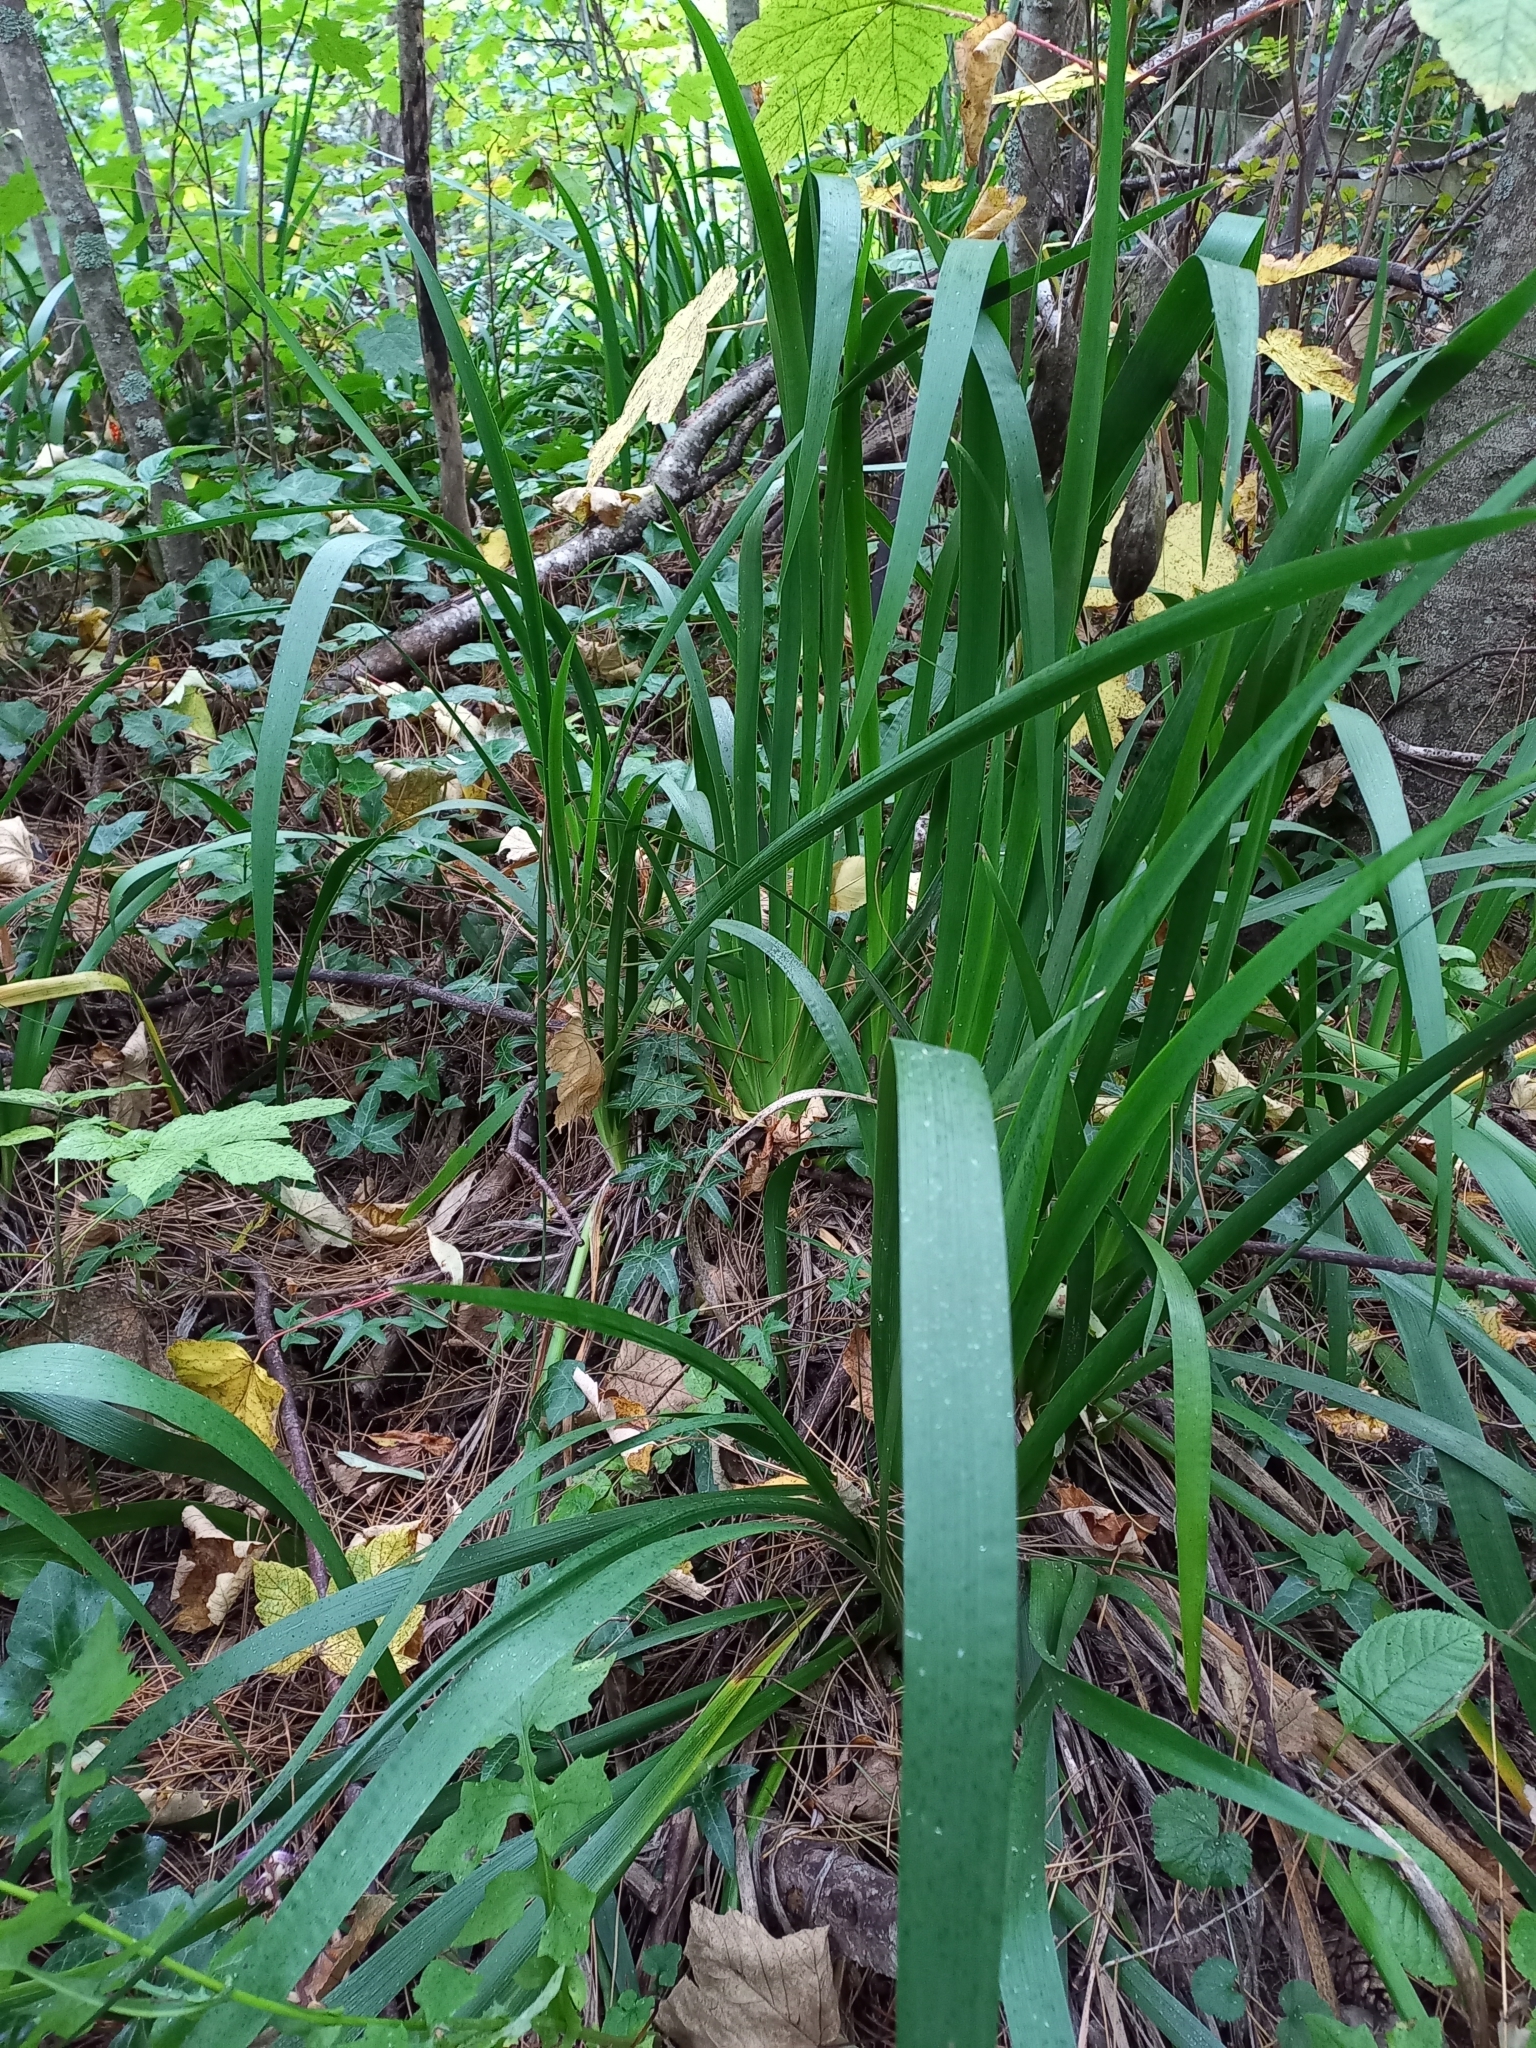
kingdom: Plantae
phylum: Tracheophyta
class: Liliopsida
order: Asparagales
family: Iridaceae
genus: Iris
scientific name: Iris foetidissima
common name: Stinking iris
